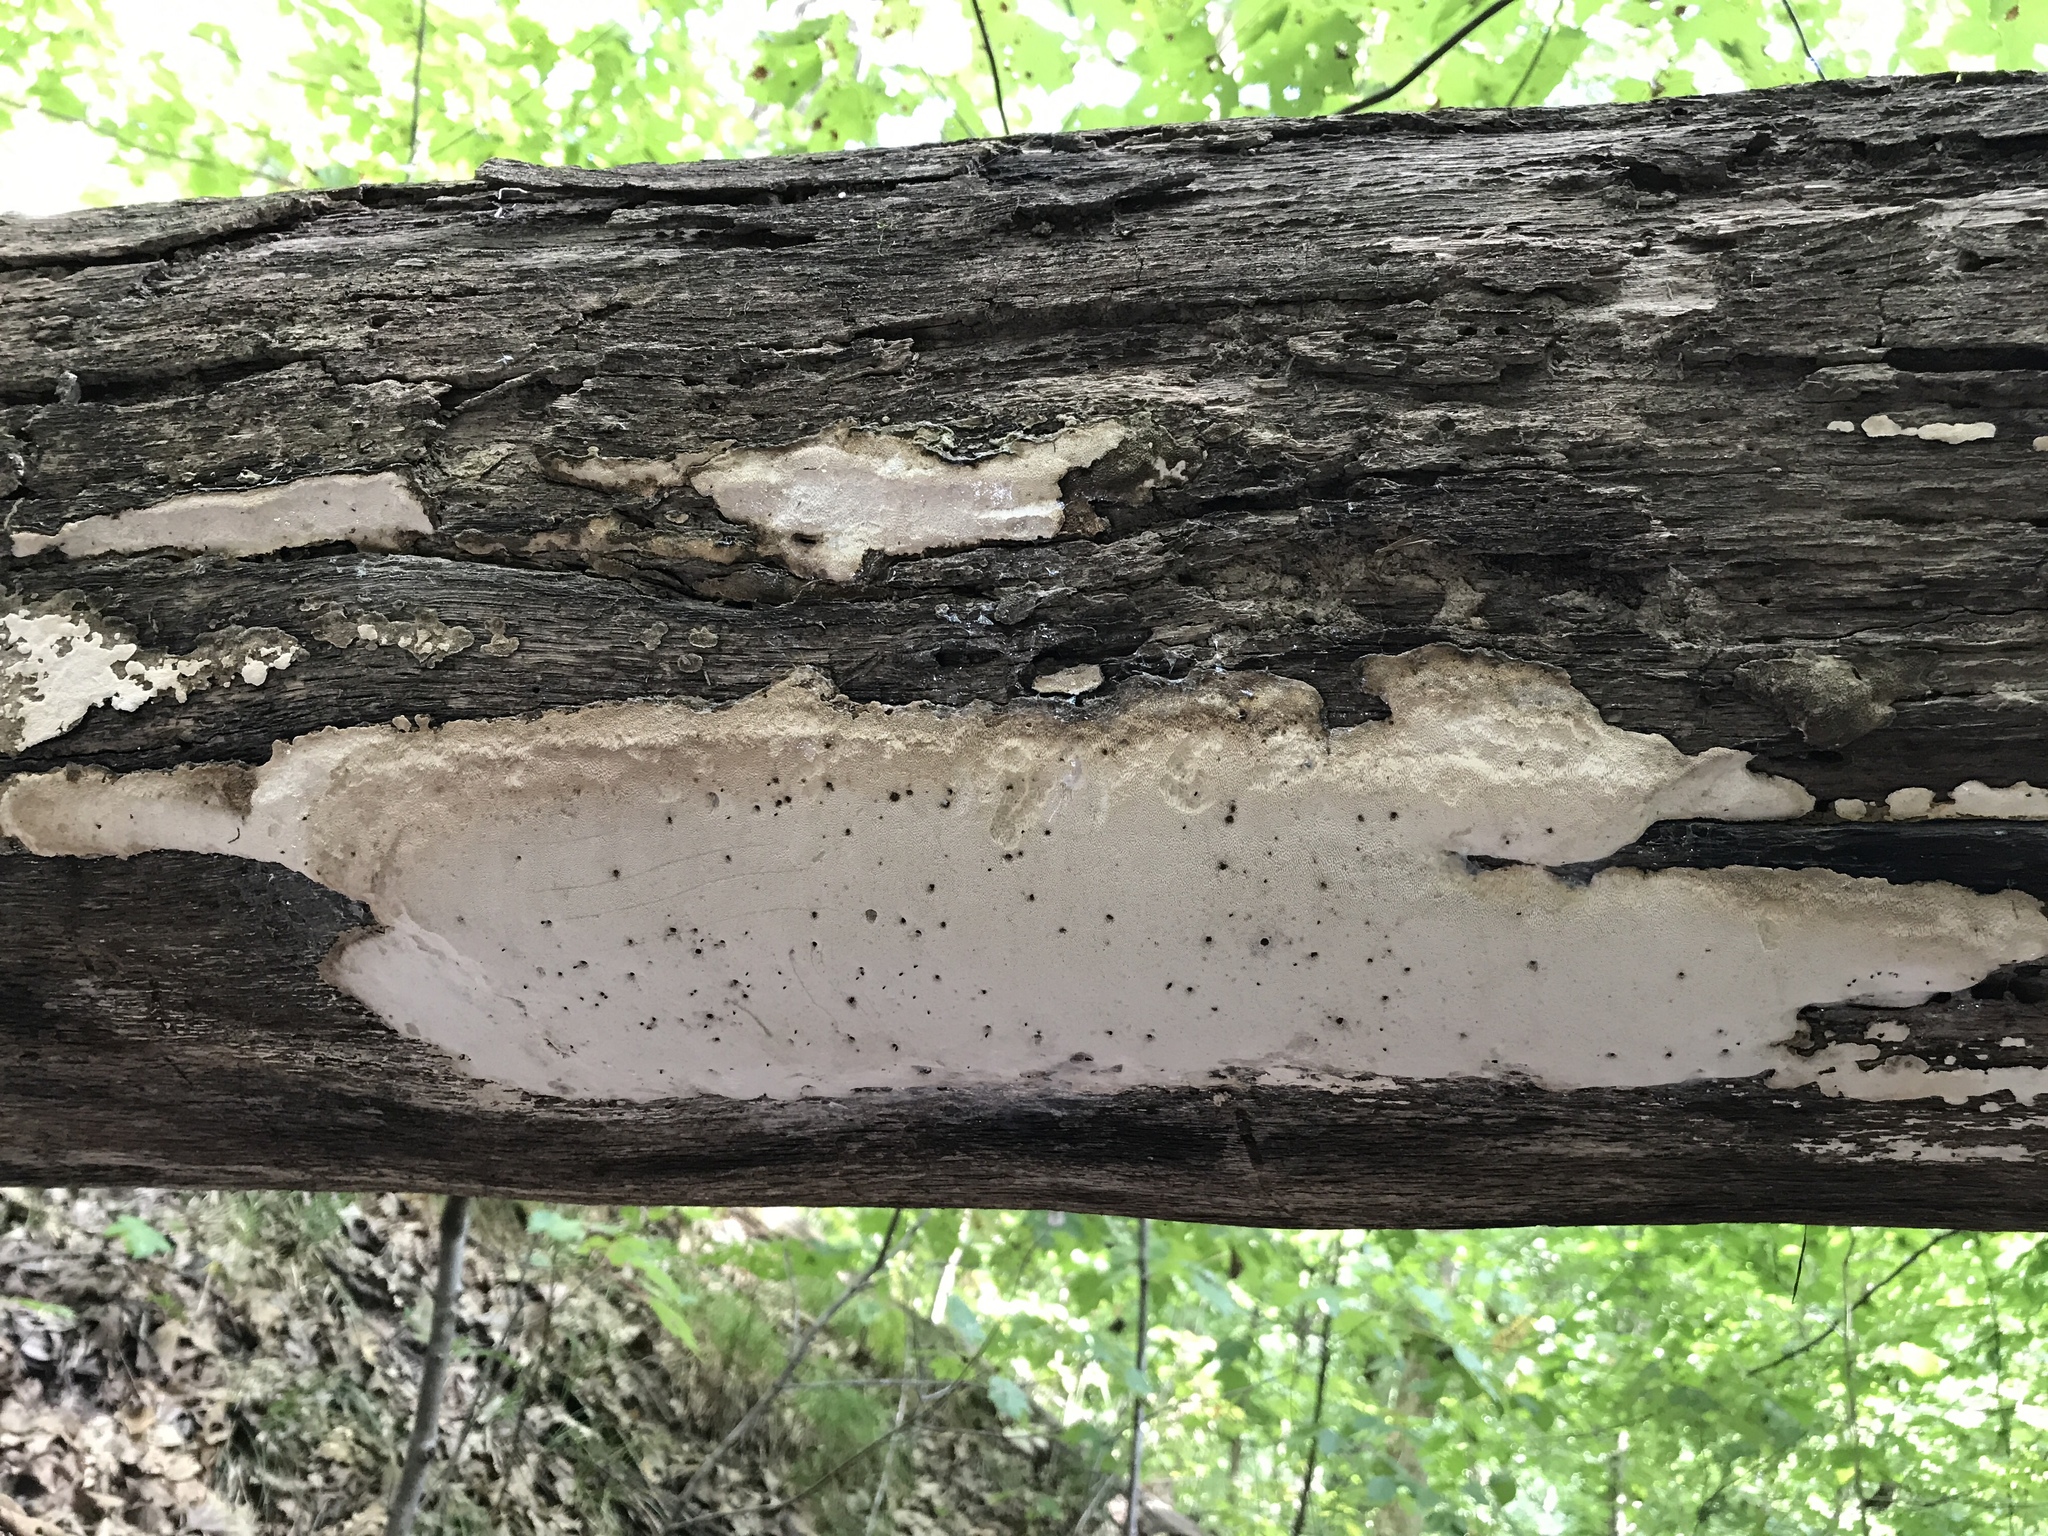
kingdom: Fungi
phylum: Basidiomycota
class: Agaricomycetes
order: Polyporales
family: Fomitopsidaceae
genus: Fomitopsis
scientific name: Fomitopsis
